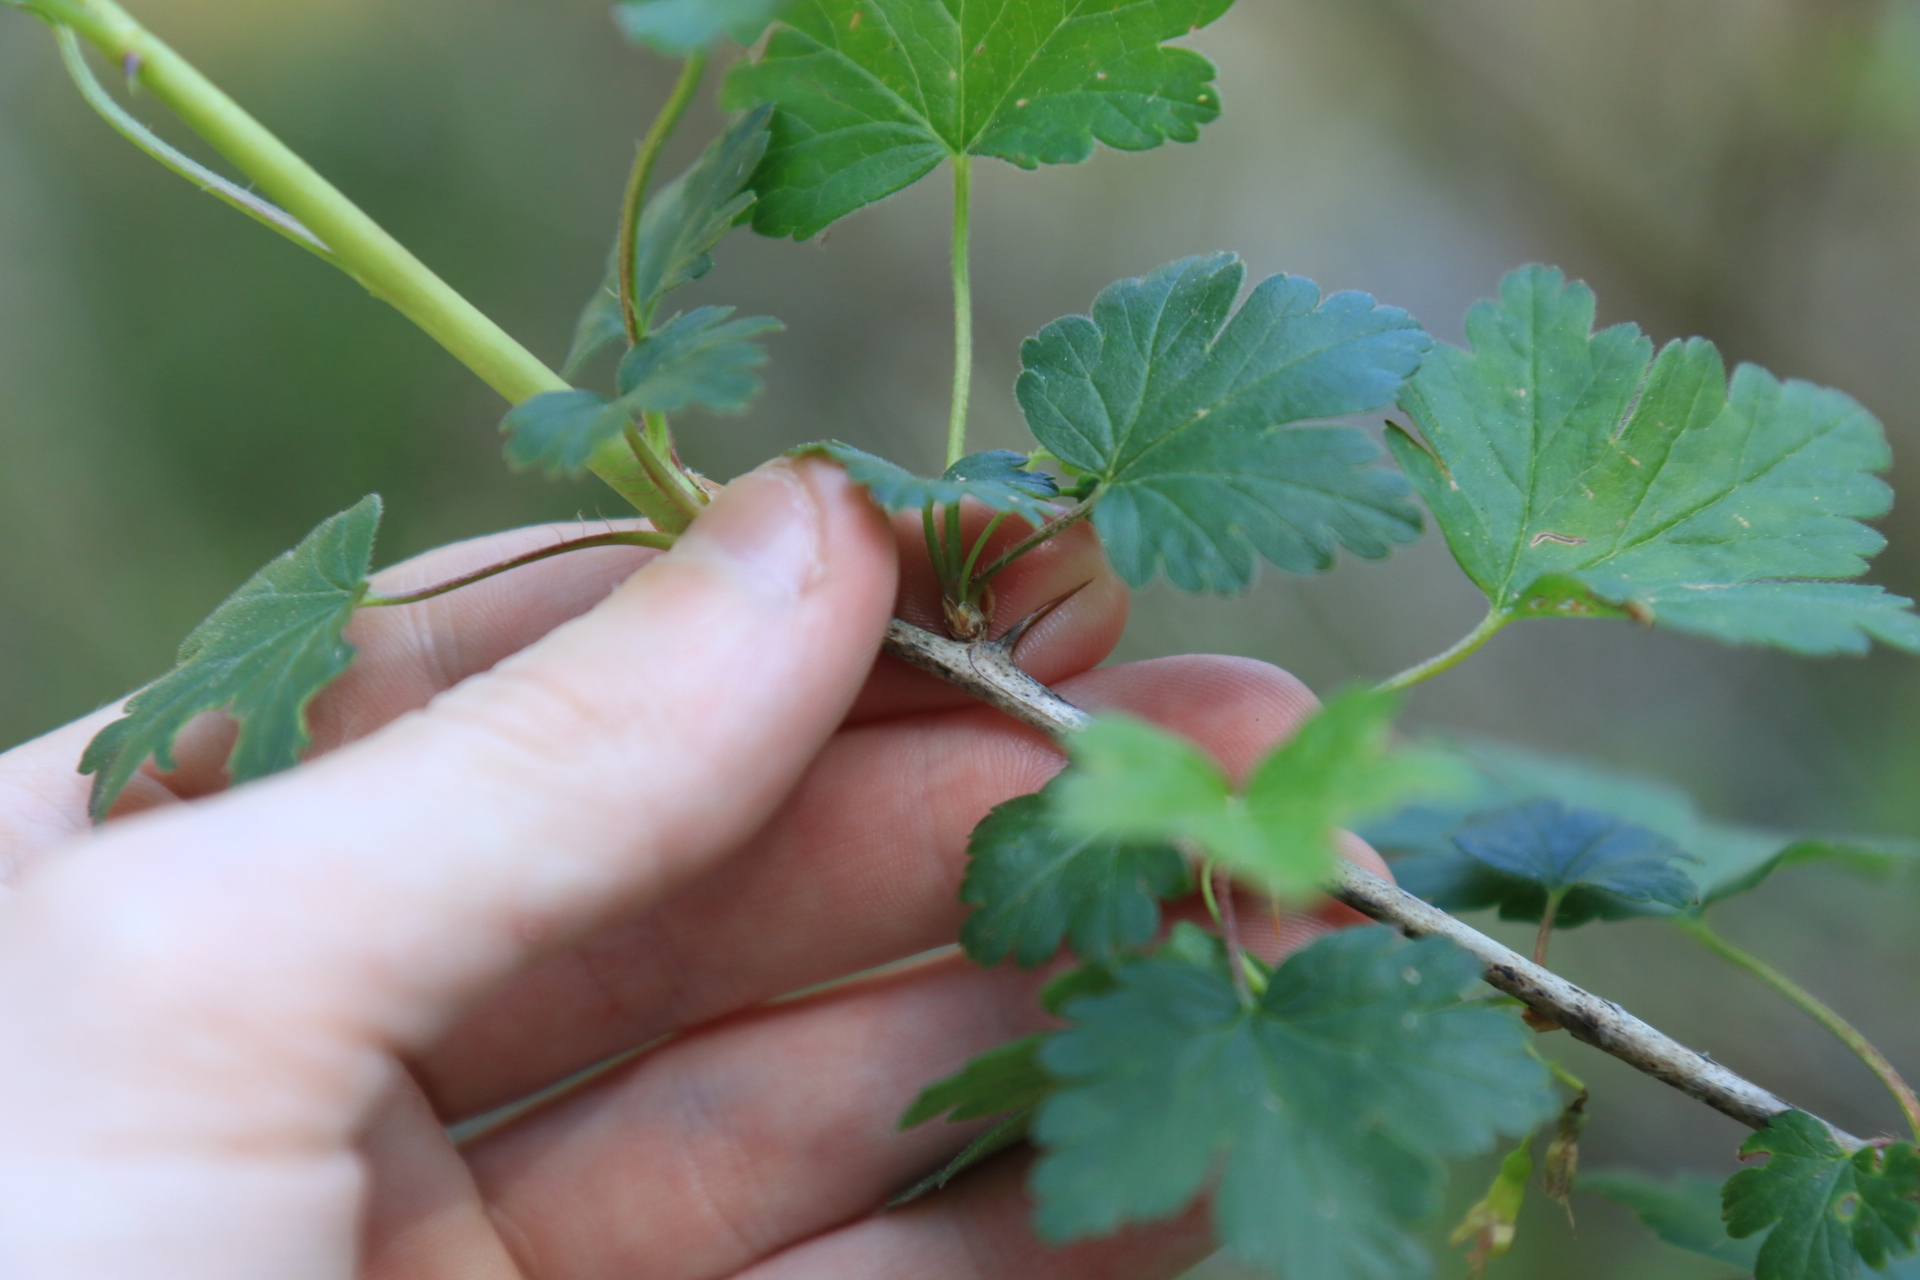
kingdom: Plantae
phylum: Tracheophyta
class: Magnoliopsida
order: Saxifragales
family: Grossulariaceae
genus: Ribes
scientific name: Ribes divaricatum
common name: Wild black gooseberry
